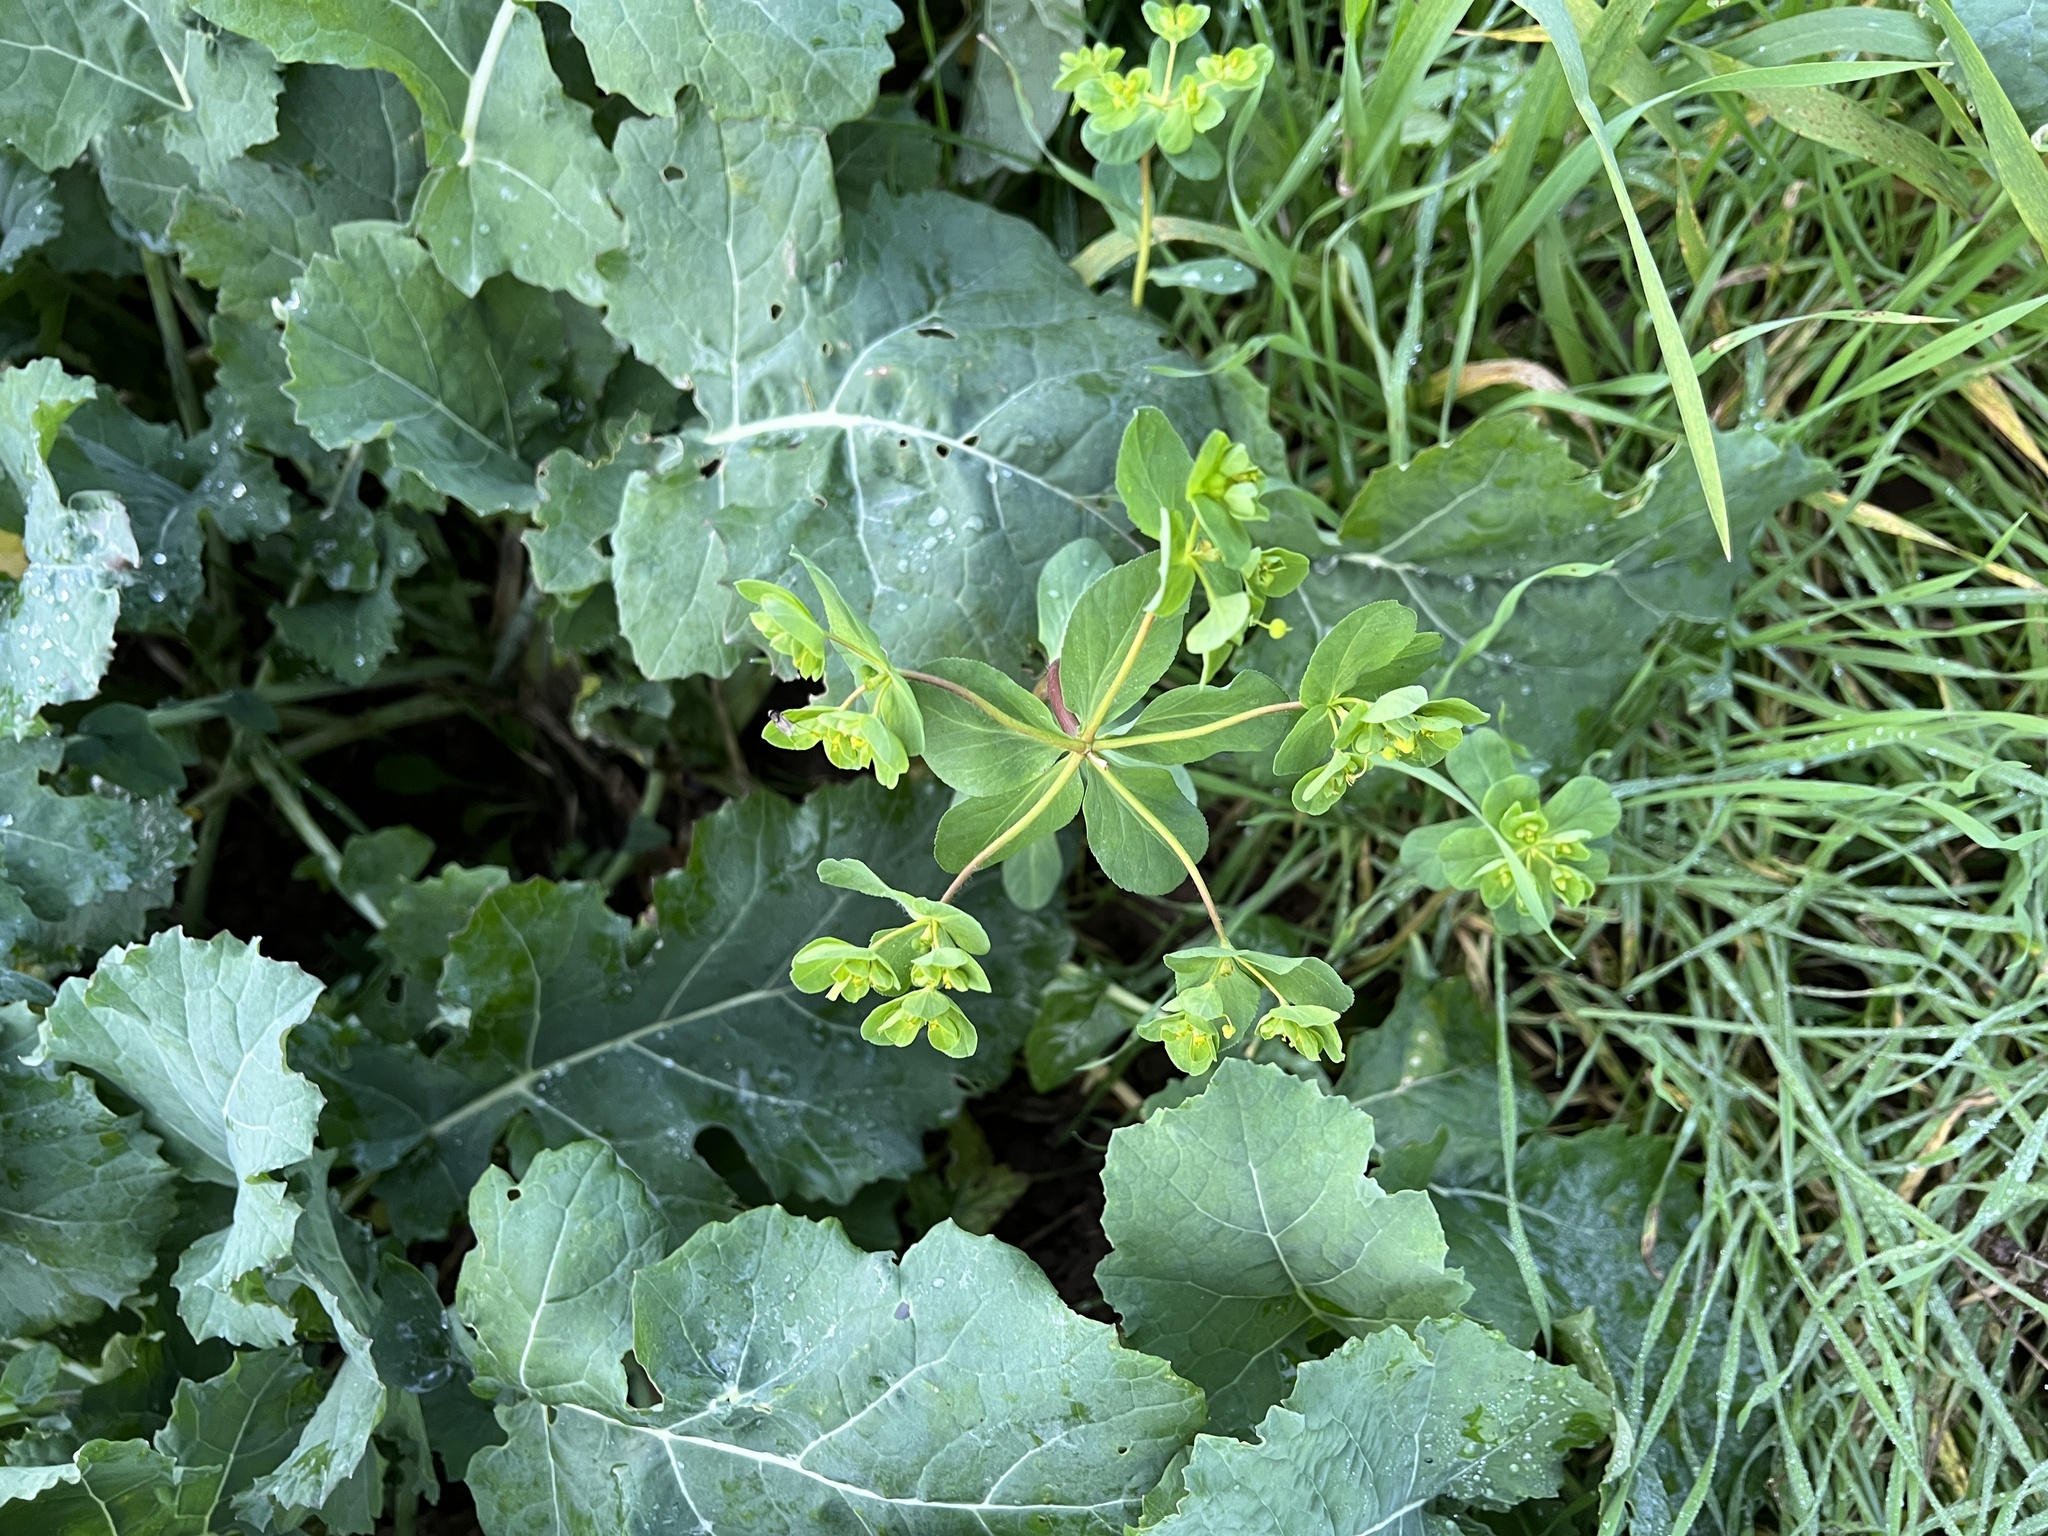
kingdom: Plantae
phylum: Tracheophyta
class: Magnoliopsida
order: Malpighiales
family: Euphorbiaceae
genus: Euphorbia
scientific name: Euphorbia helioscopia
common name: Sun spurge
